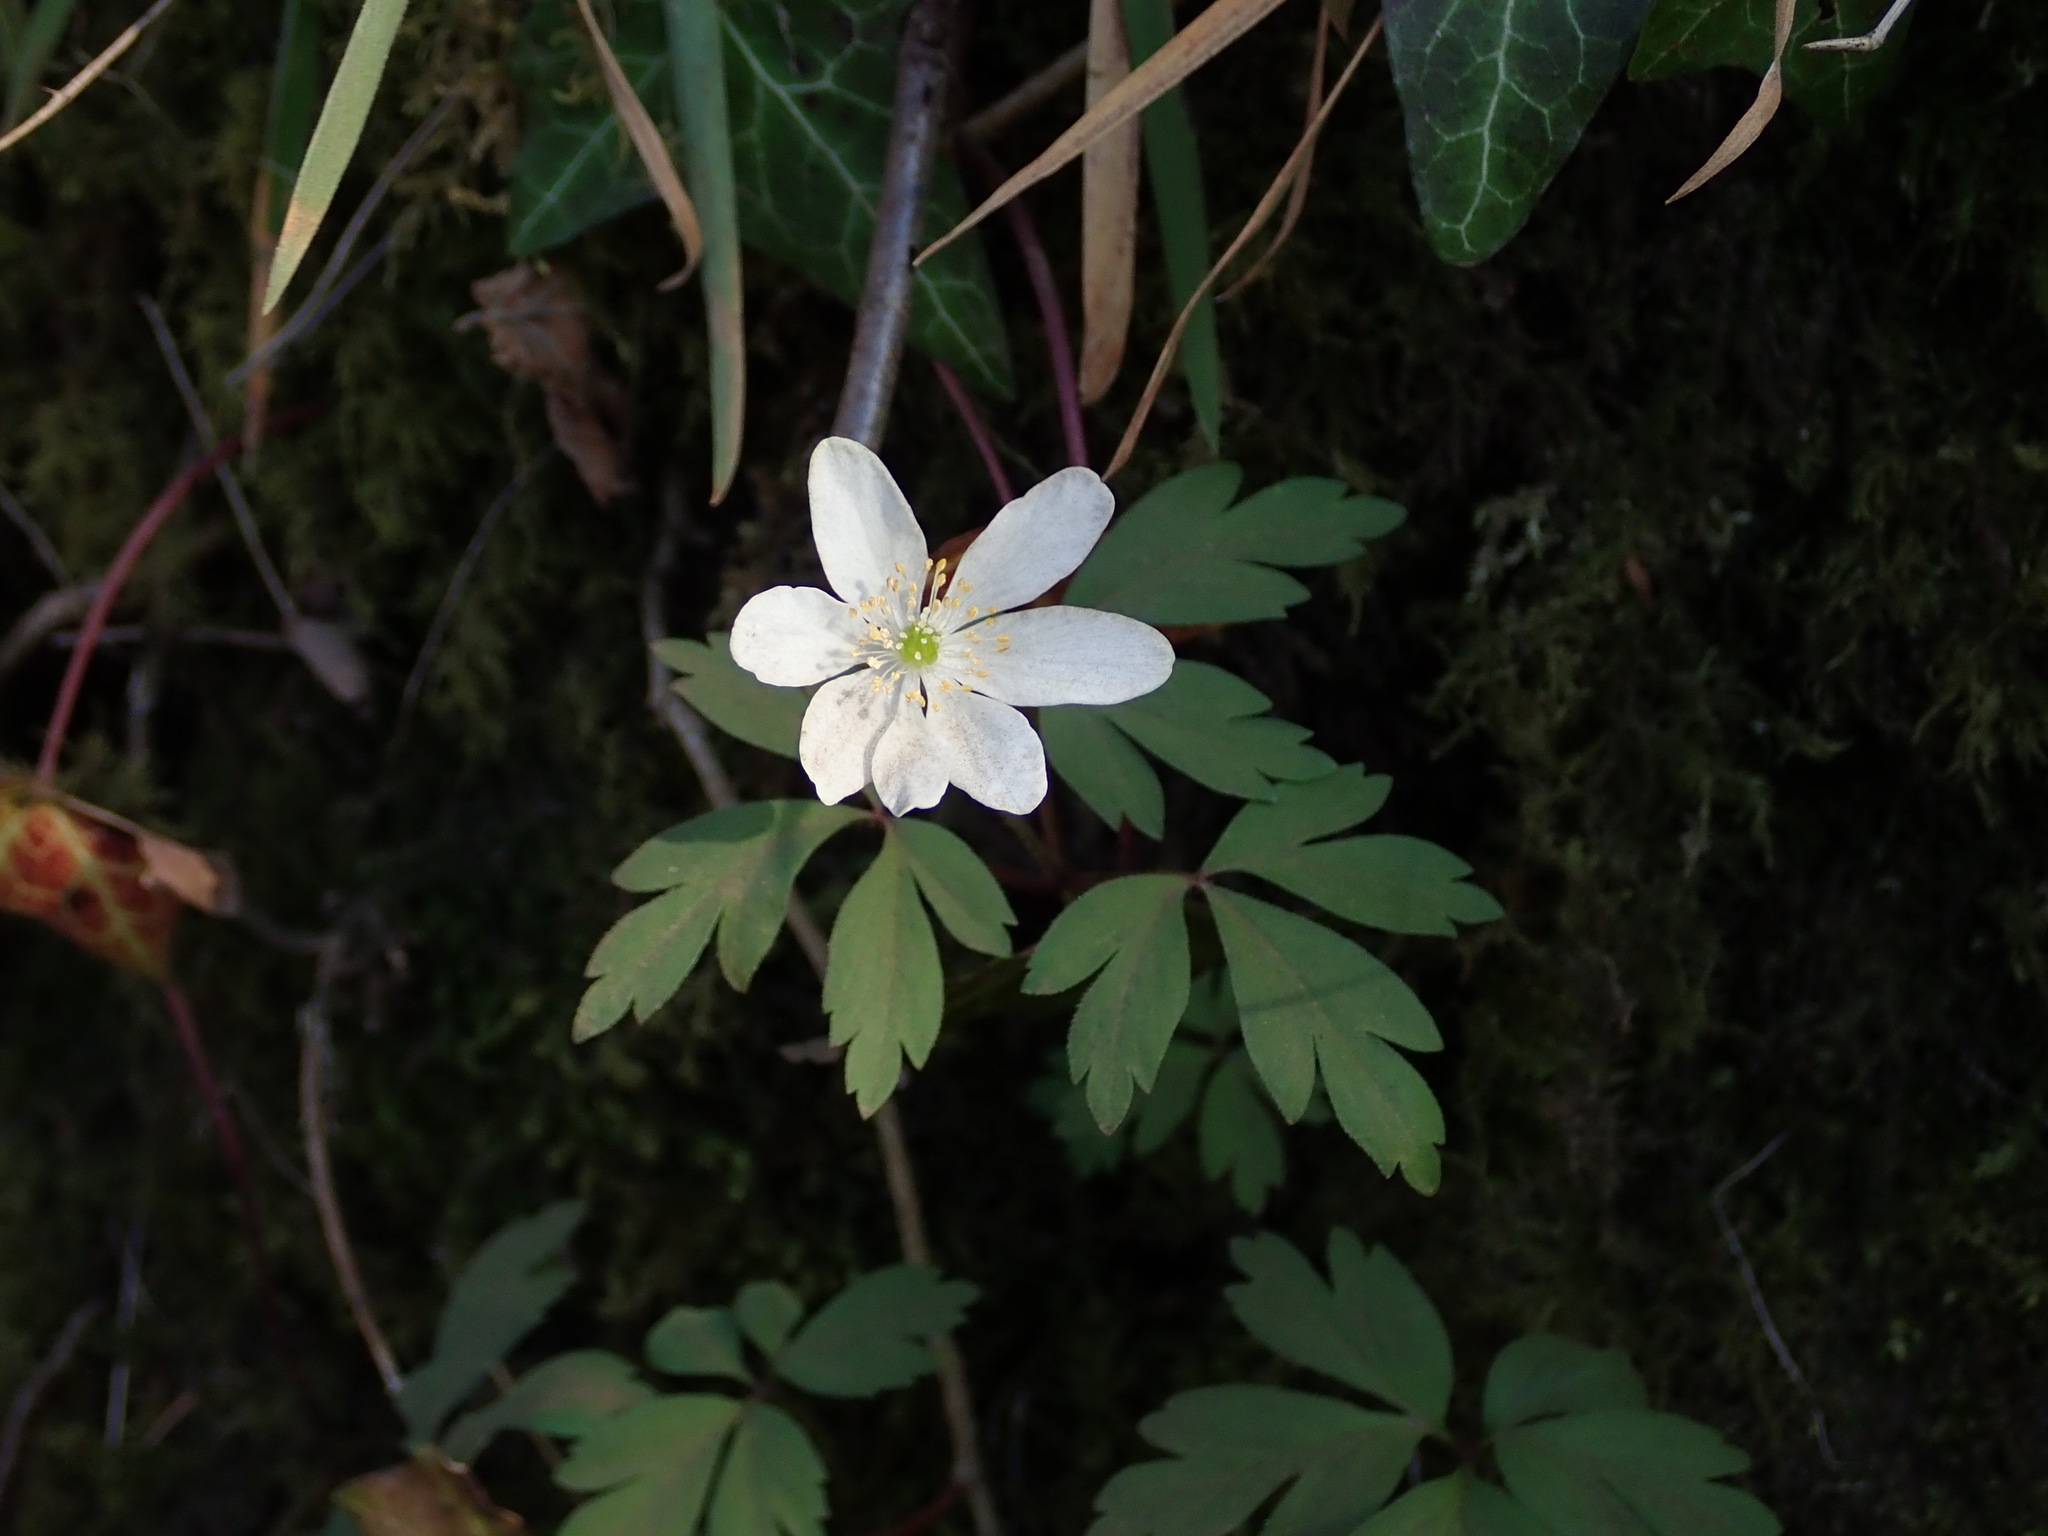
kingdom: Plantae
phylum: Tracheophyta
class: Magnoliopsida
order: Ranunculales
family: Ranunculaceae
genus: Anemone
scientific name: Anemone nemorosa
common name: Wood anemone
